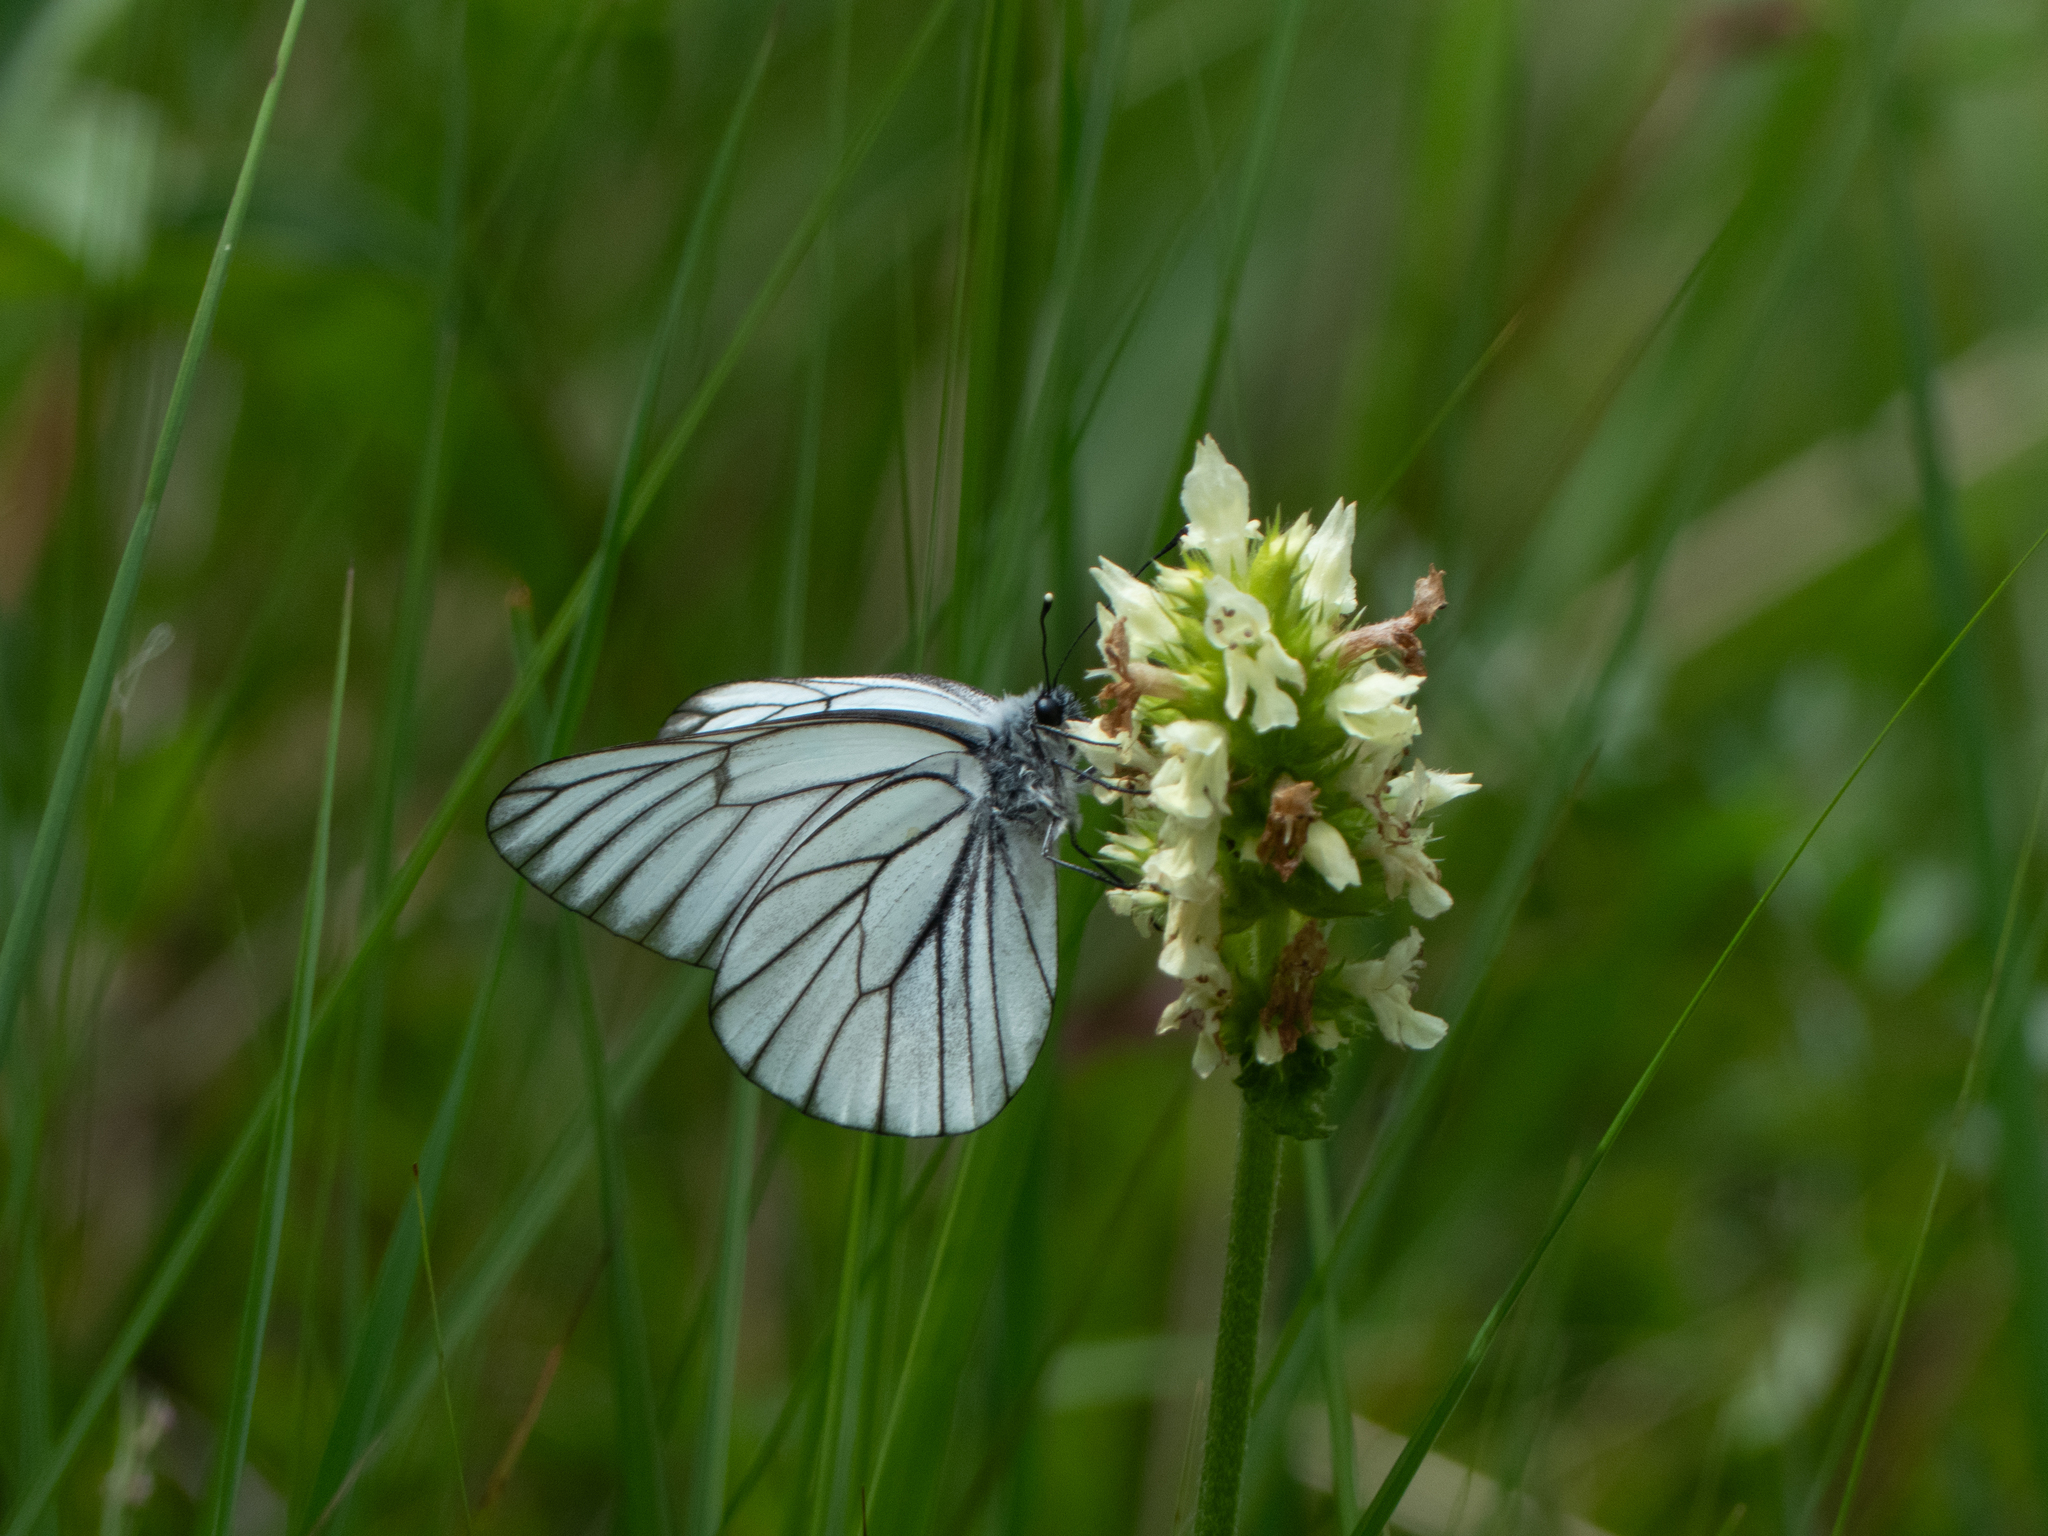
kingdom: Animalia
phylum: Arthropoda
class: Insecta
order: Lepidoptera
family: Pieridae
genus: Aporia
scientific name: Aporia crataegi
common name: Black-veined white
